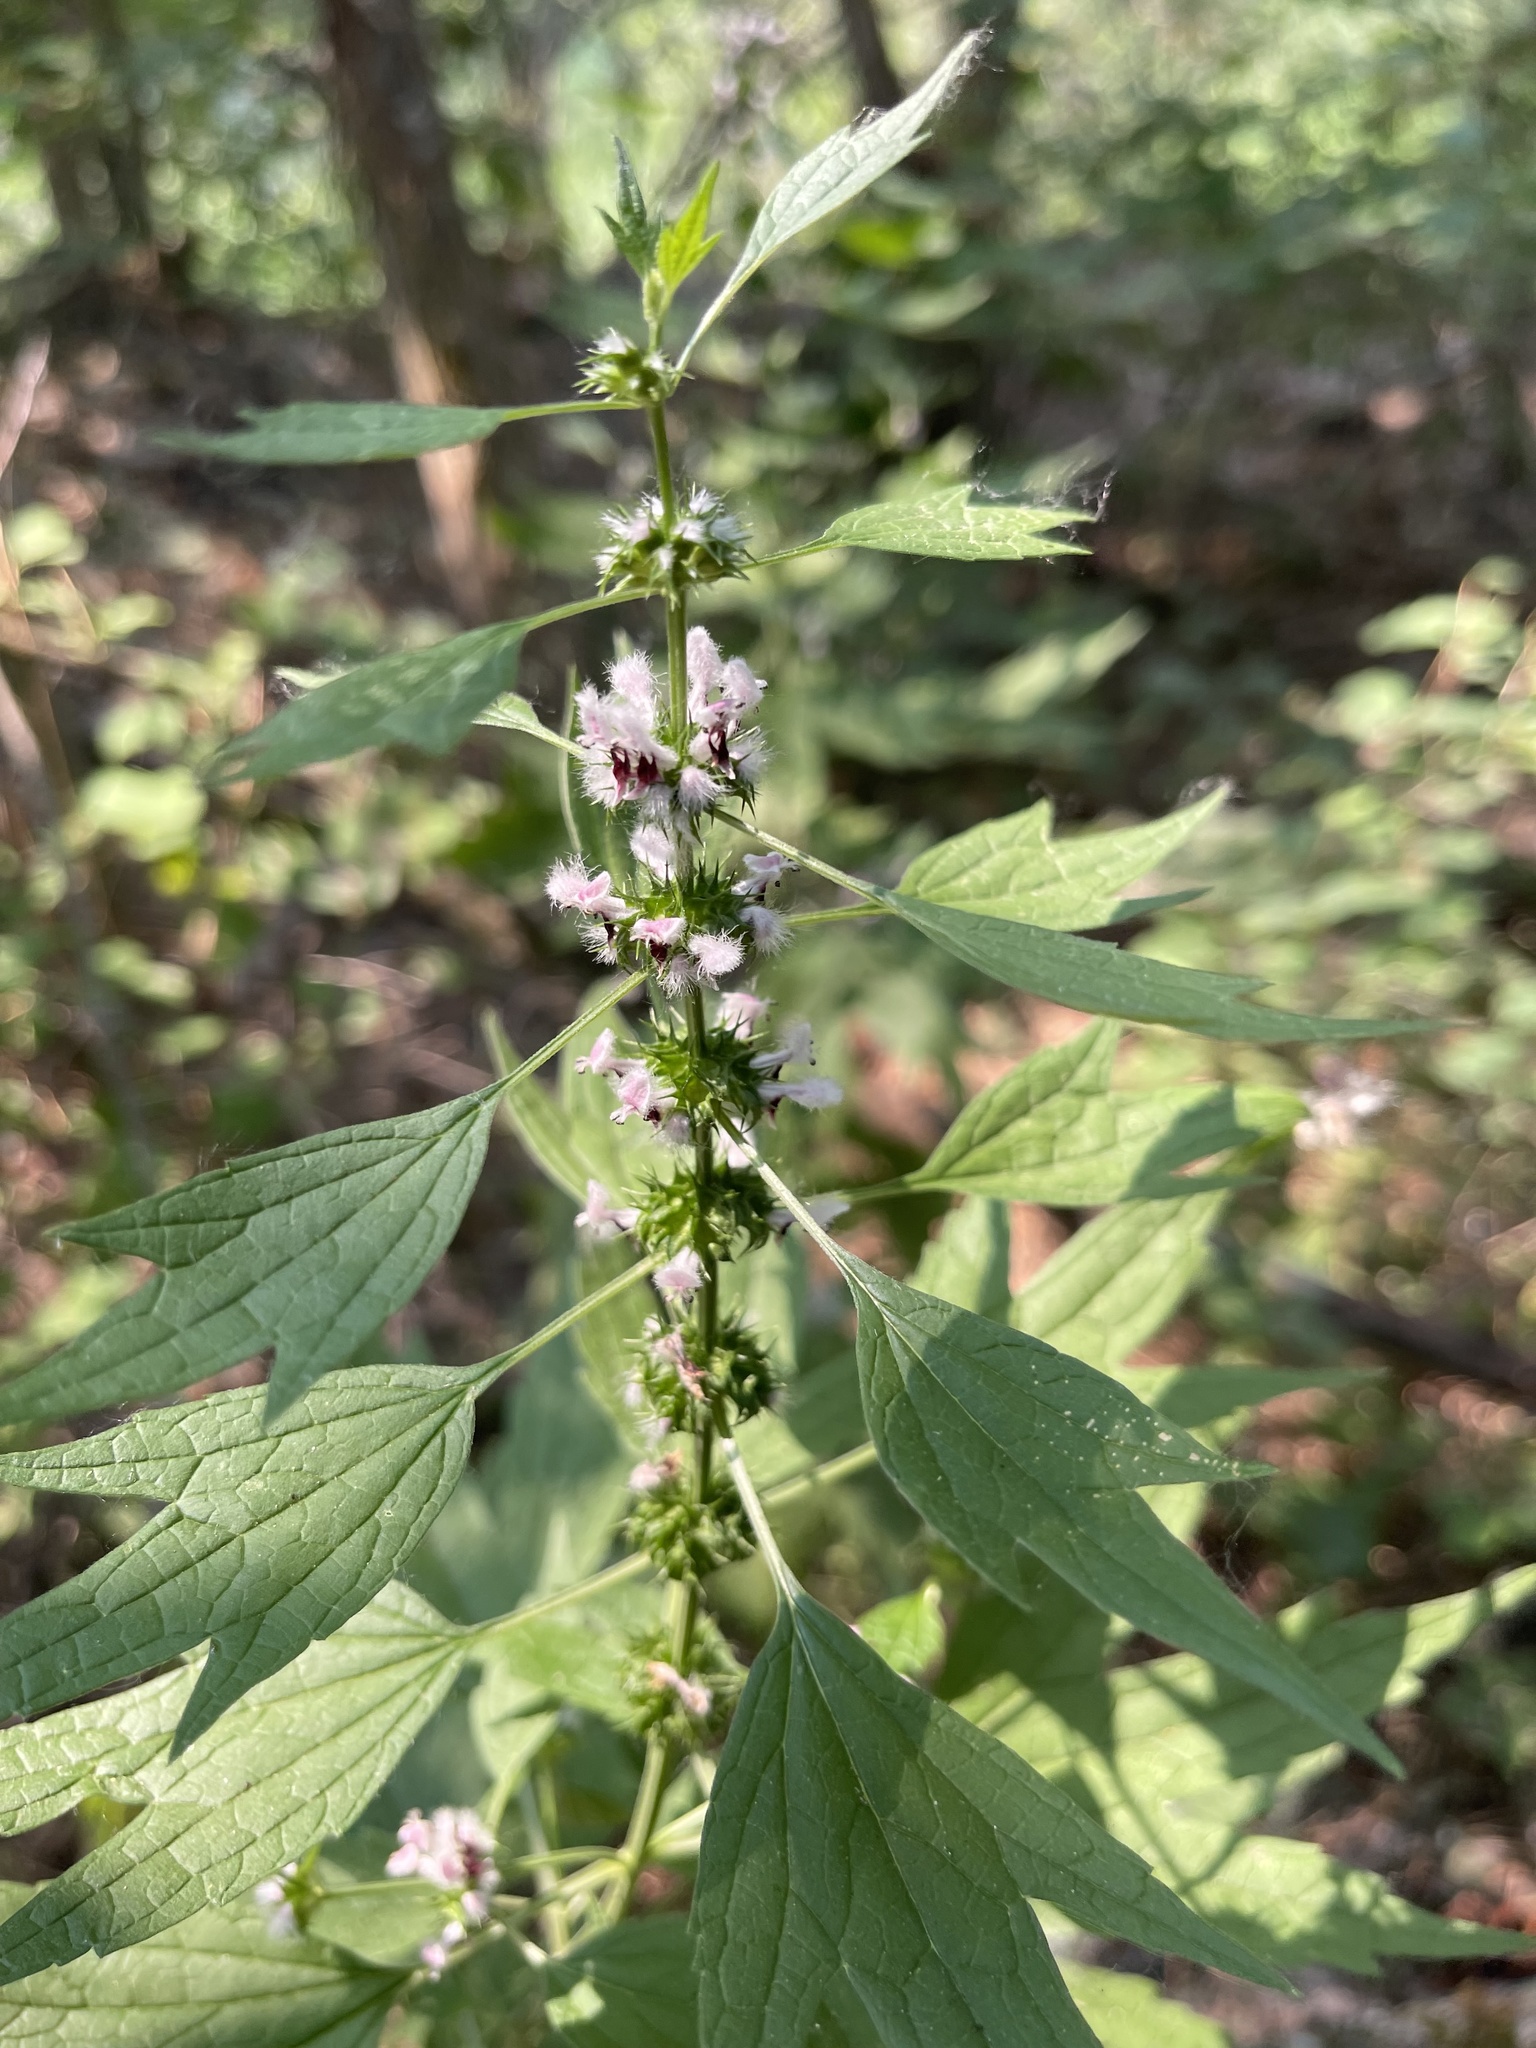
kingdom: Plantae
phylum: Tracheophyta
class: Magnoliopsida
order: Lamiales
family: Lamiaceae
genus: Leonurus
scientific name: Leonurus cardiaca
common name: Motherwort
